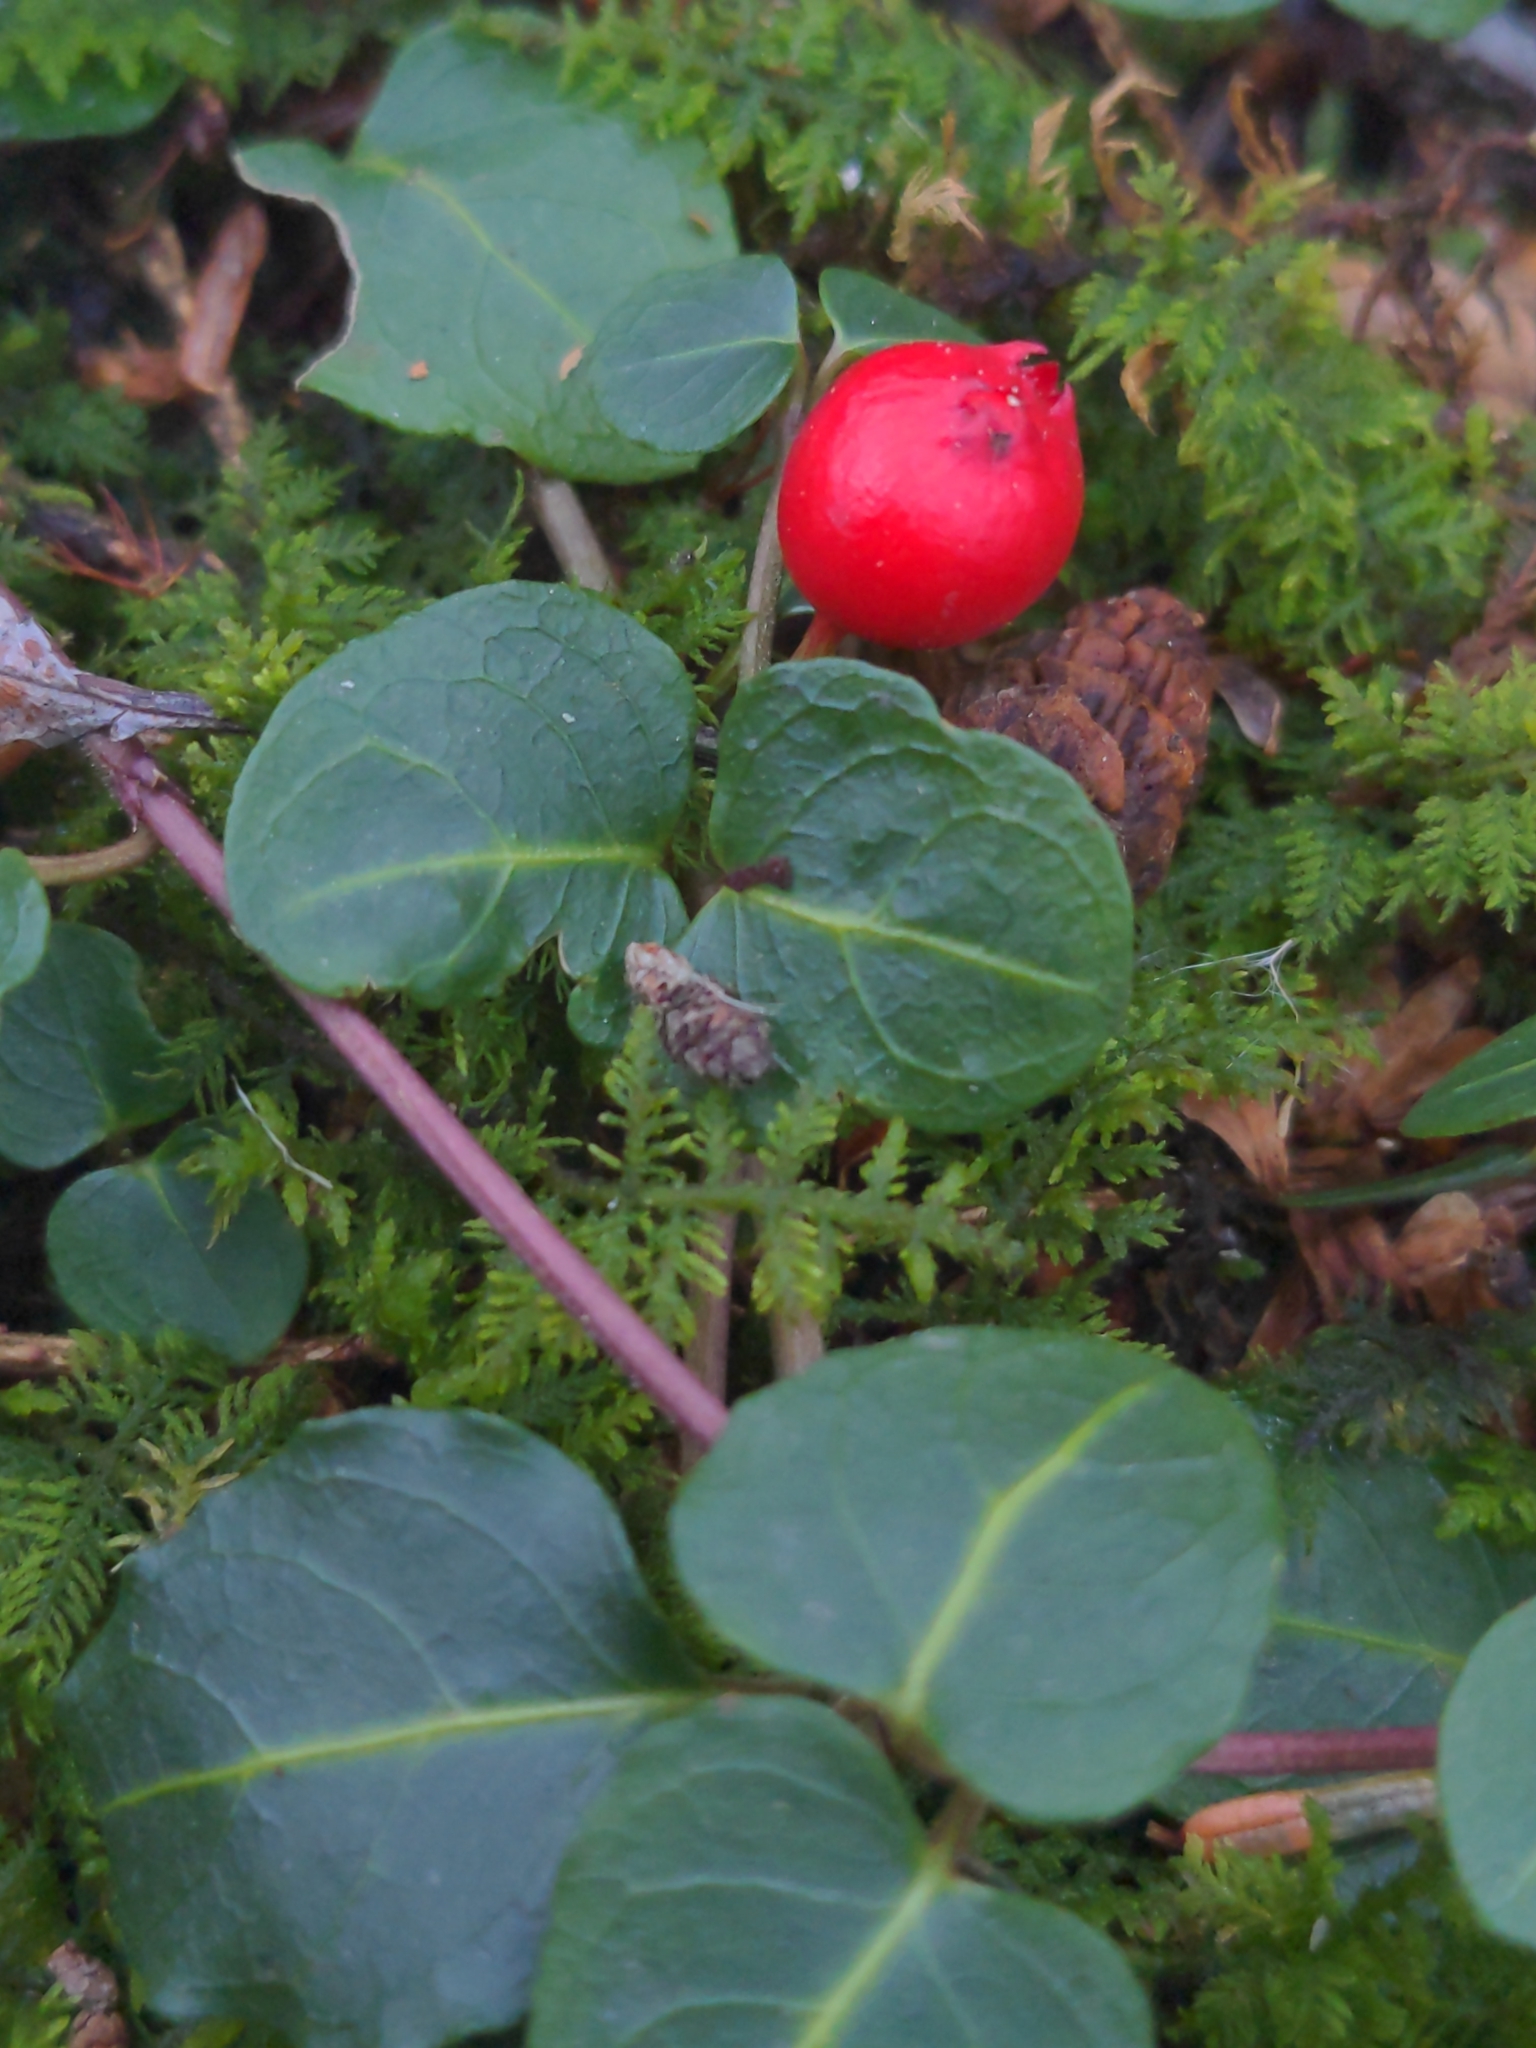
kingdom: Plantae
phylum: Tracheophyta
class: Magnoliopsida
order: Gentianales
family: Rubiaceae
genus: Mitchella
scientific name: Mitchella repens
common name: Partridge-berry
